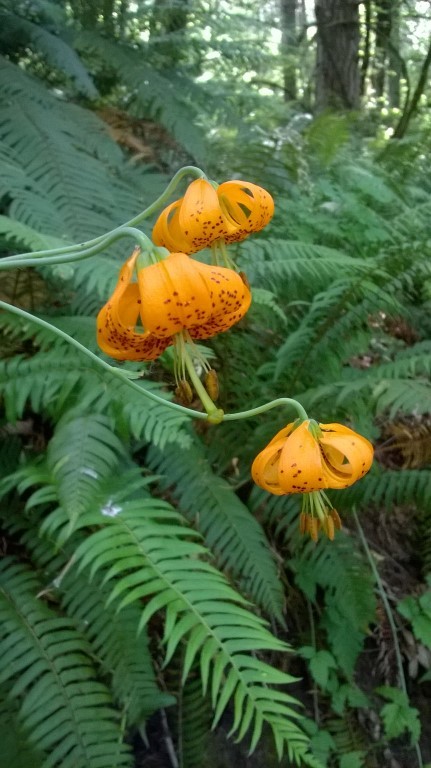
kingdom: Plantae
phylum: Tracheophyta
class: Liliopsida
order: Liliales
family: Liliaceae
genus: Lilium
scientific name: Lilium columbianum
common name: Columbia lily
